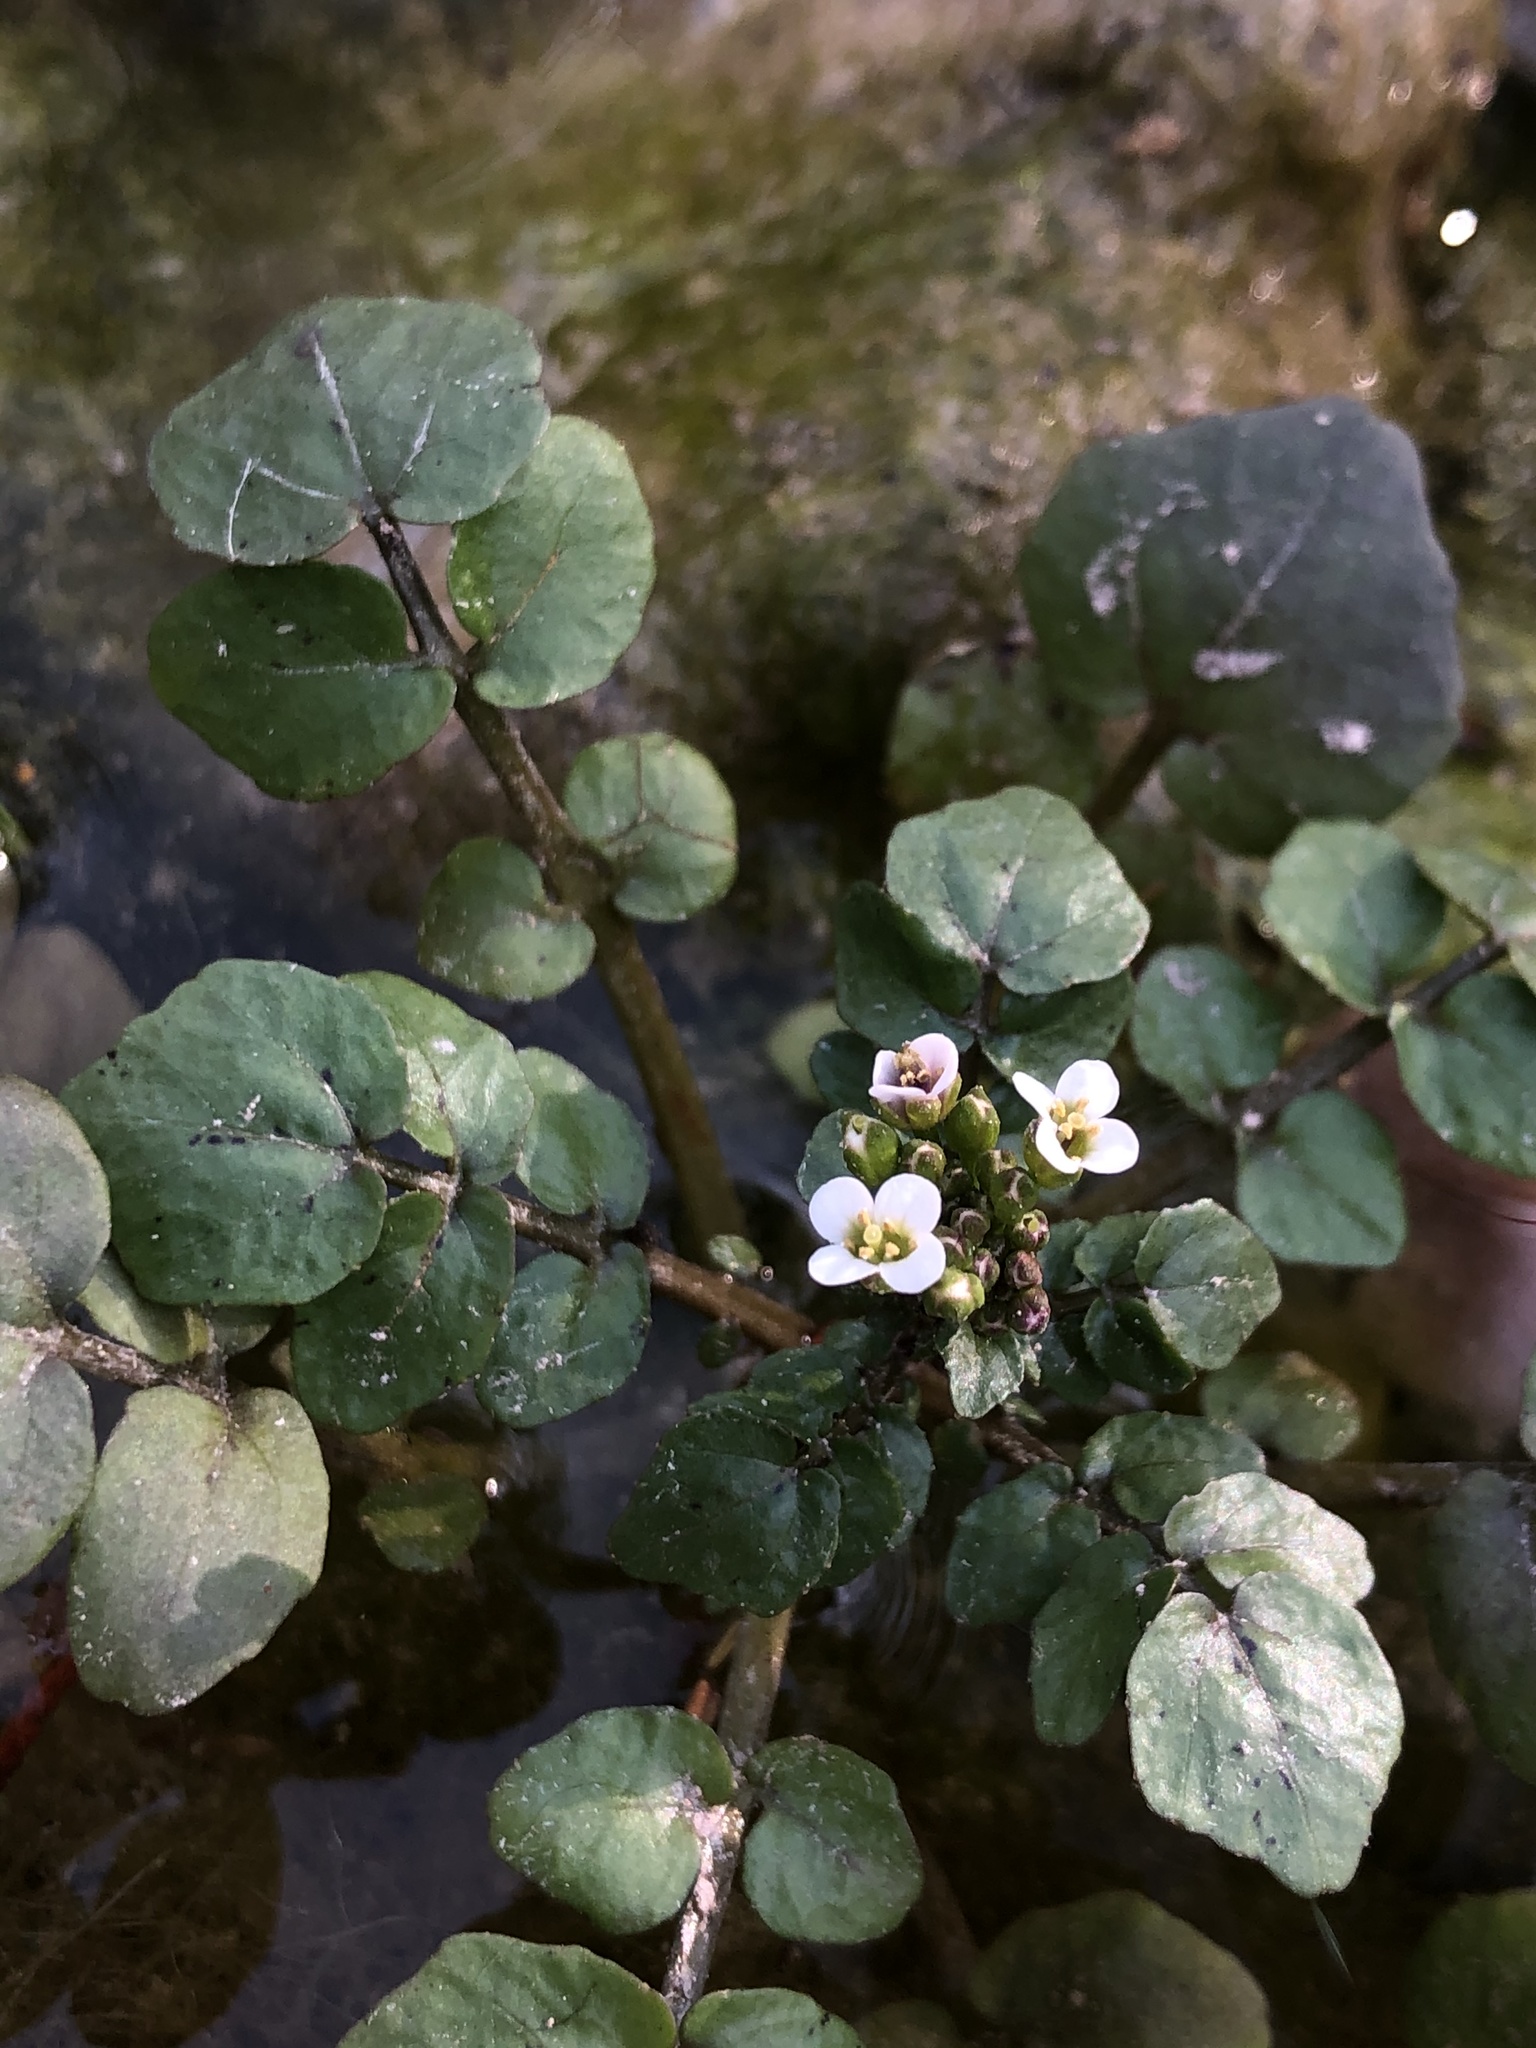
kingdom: Plantae
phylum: Tracheophyta
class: Magnoliopsida
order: Brassicales
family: Brassicaceae
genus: Nasturtium
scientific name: Nasturtium officinale
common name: Watercress
